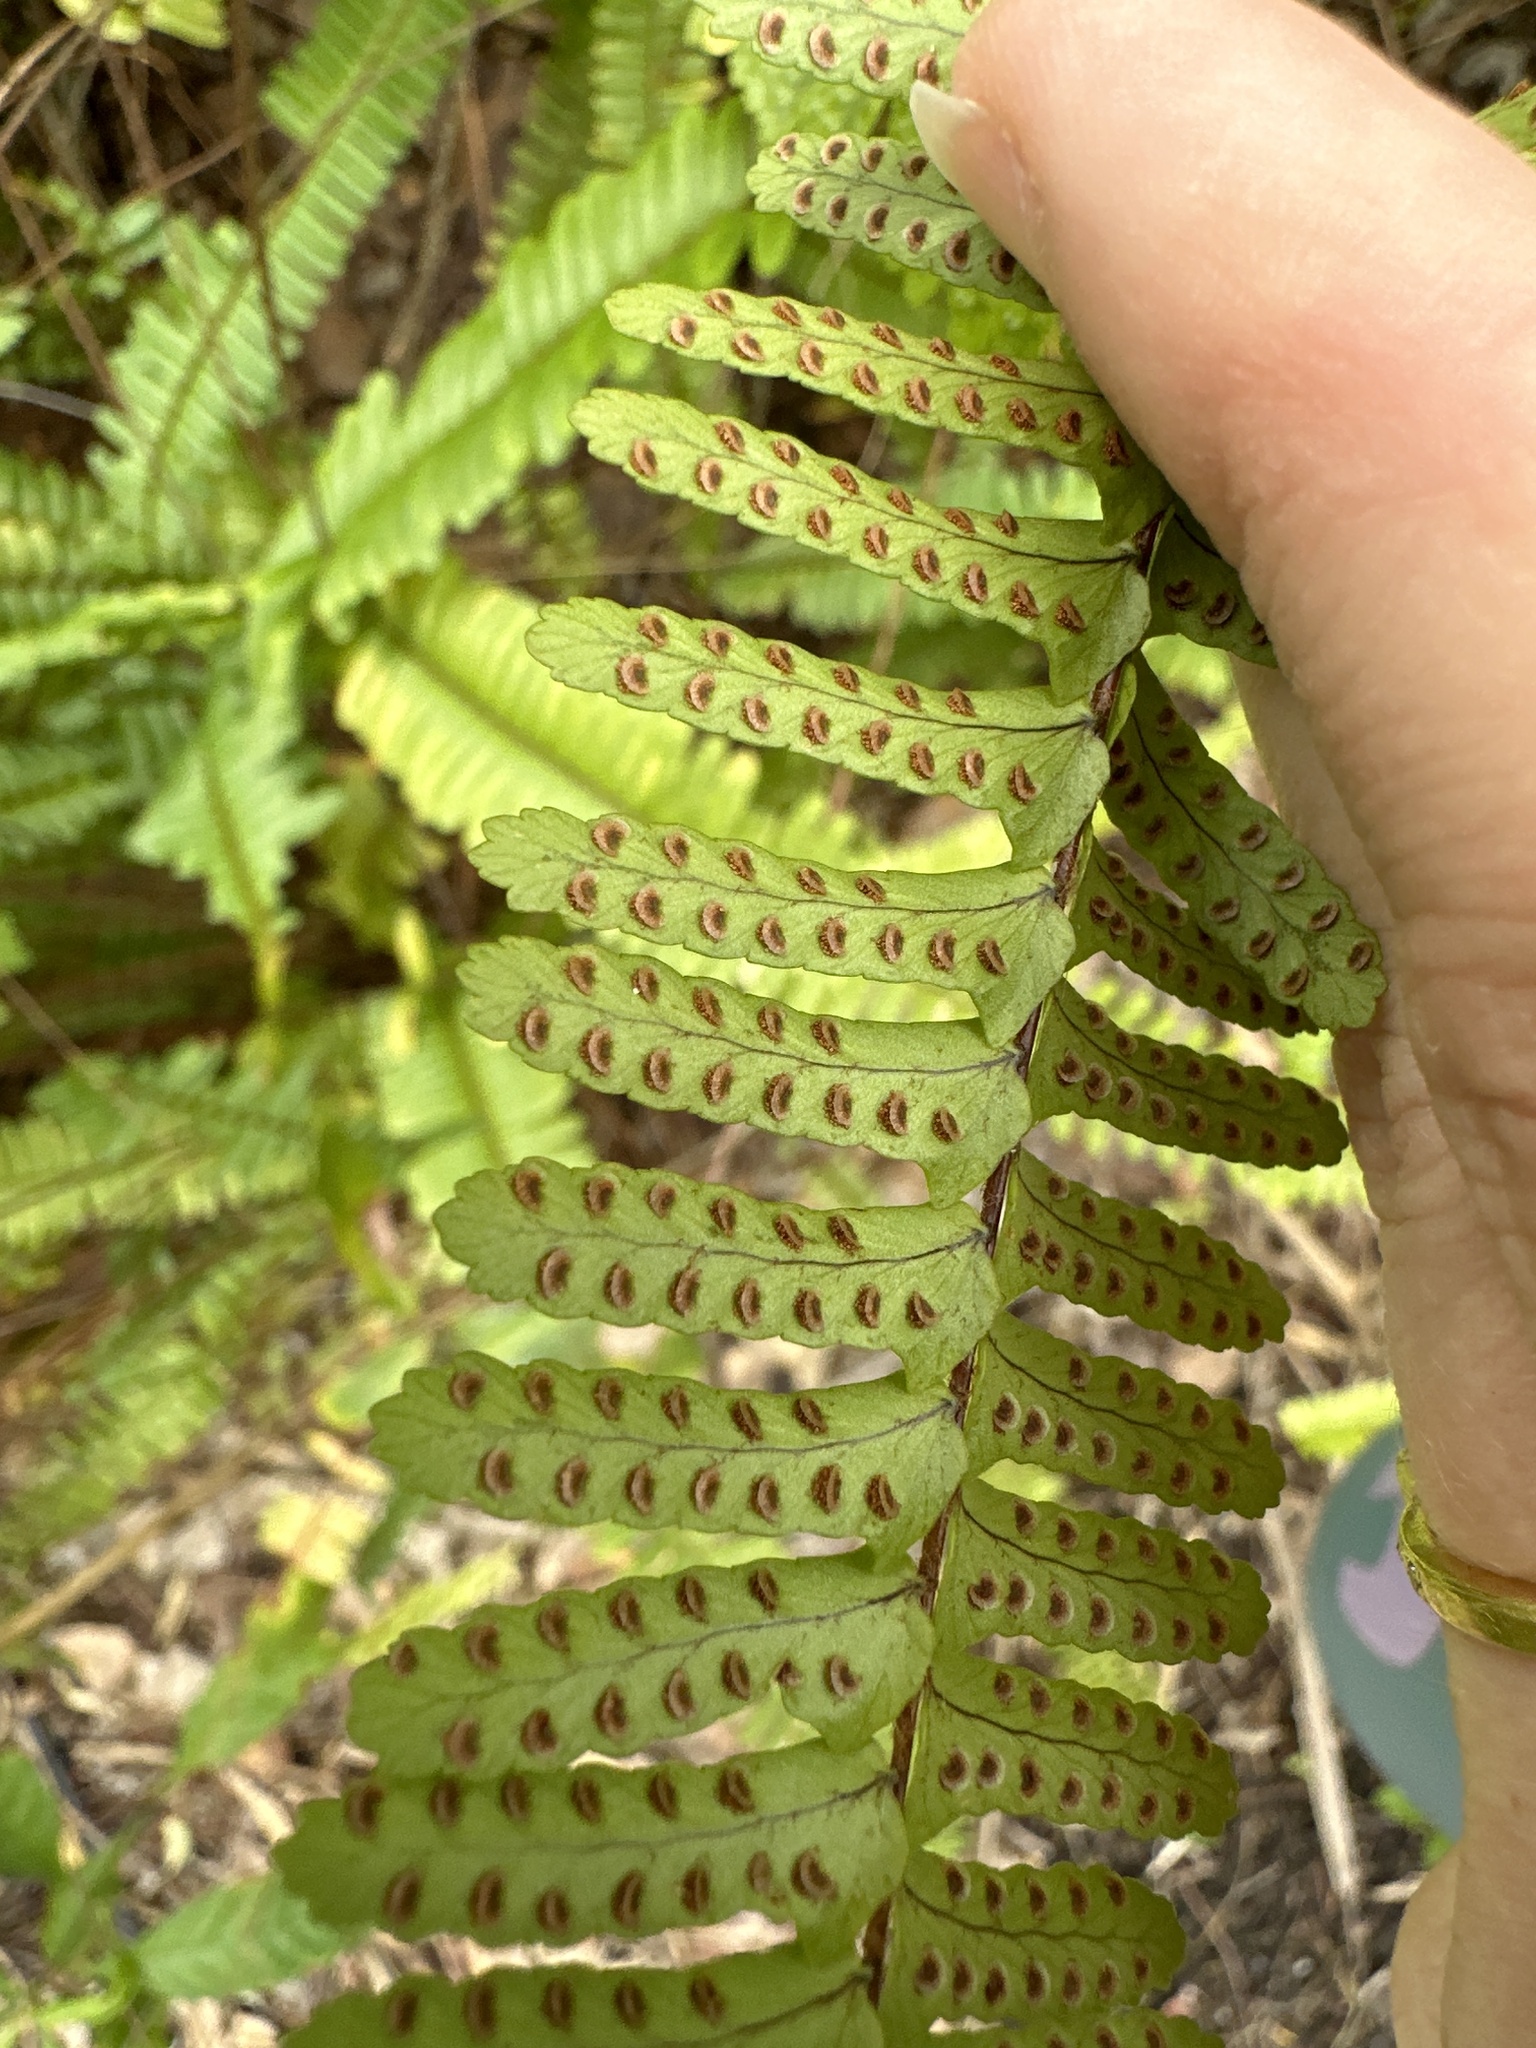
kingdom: Plantae
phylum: Tracheophyta
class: Polypodiopsida
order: Polypodiales
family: Nephrolepidaceae
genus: Nephrolepis
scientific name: Nephrolepis cordifolia
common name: Narrow swordfern
